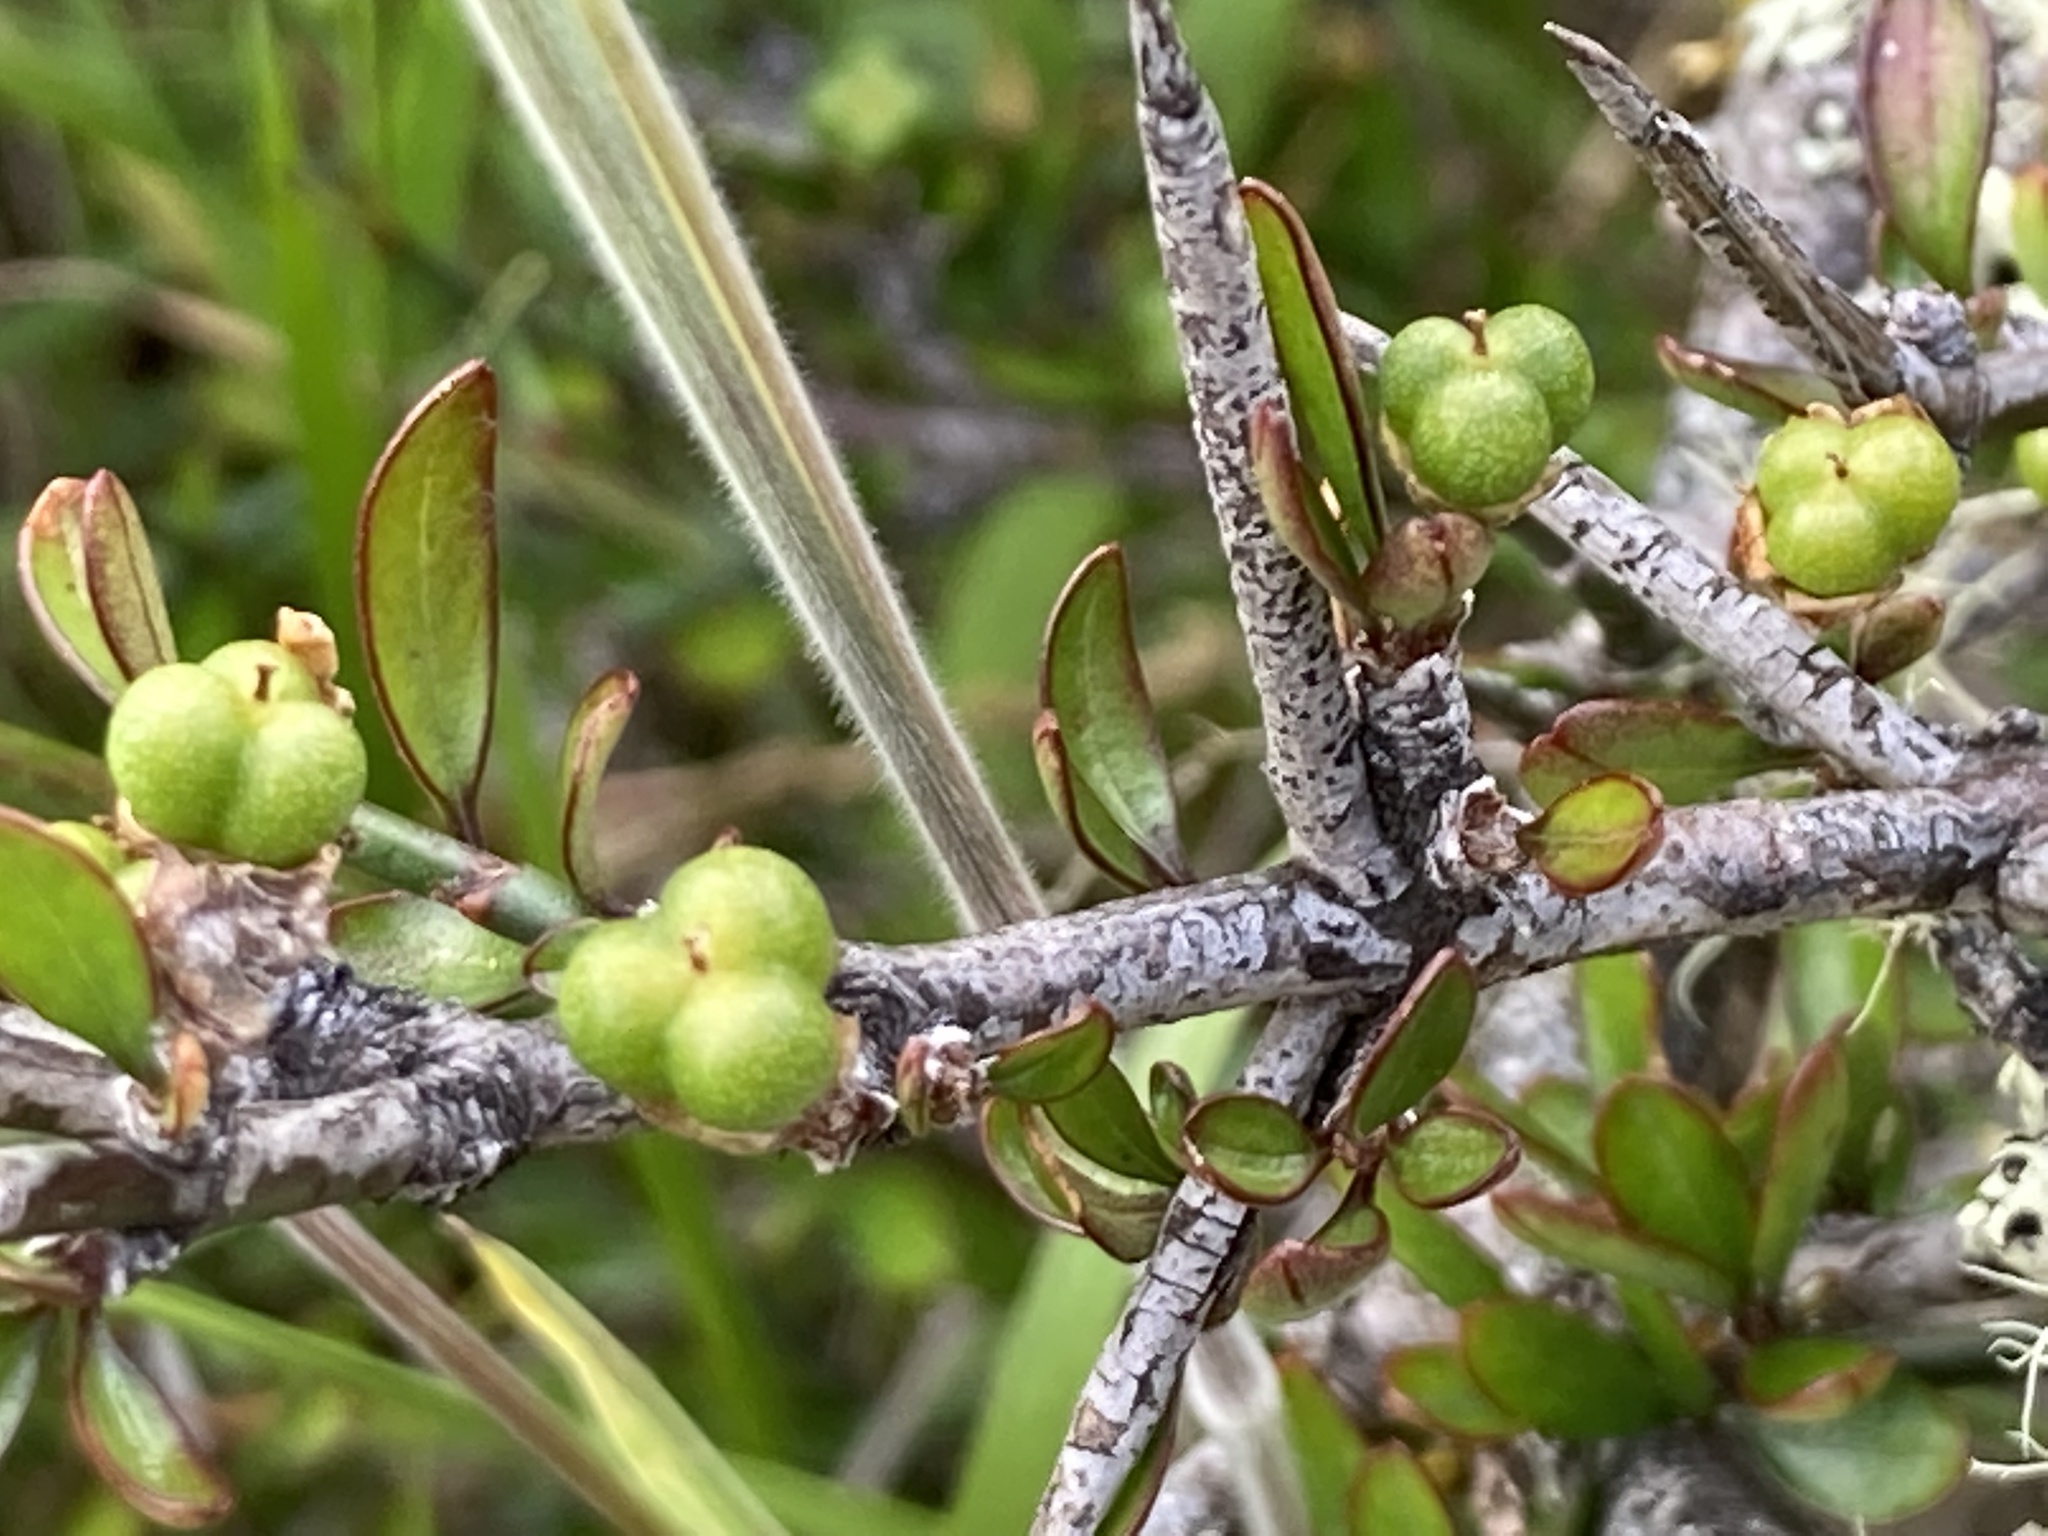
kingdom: Plantae
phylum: Tracheophyta
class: Magnoliopsida
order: Rosales
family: Rhamnaceae
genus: Discaria
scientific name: Discaria toumatou
